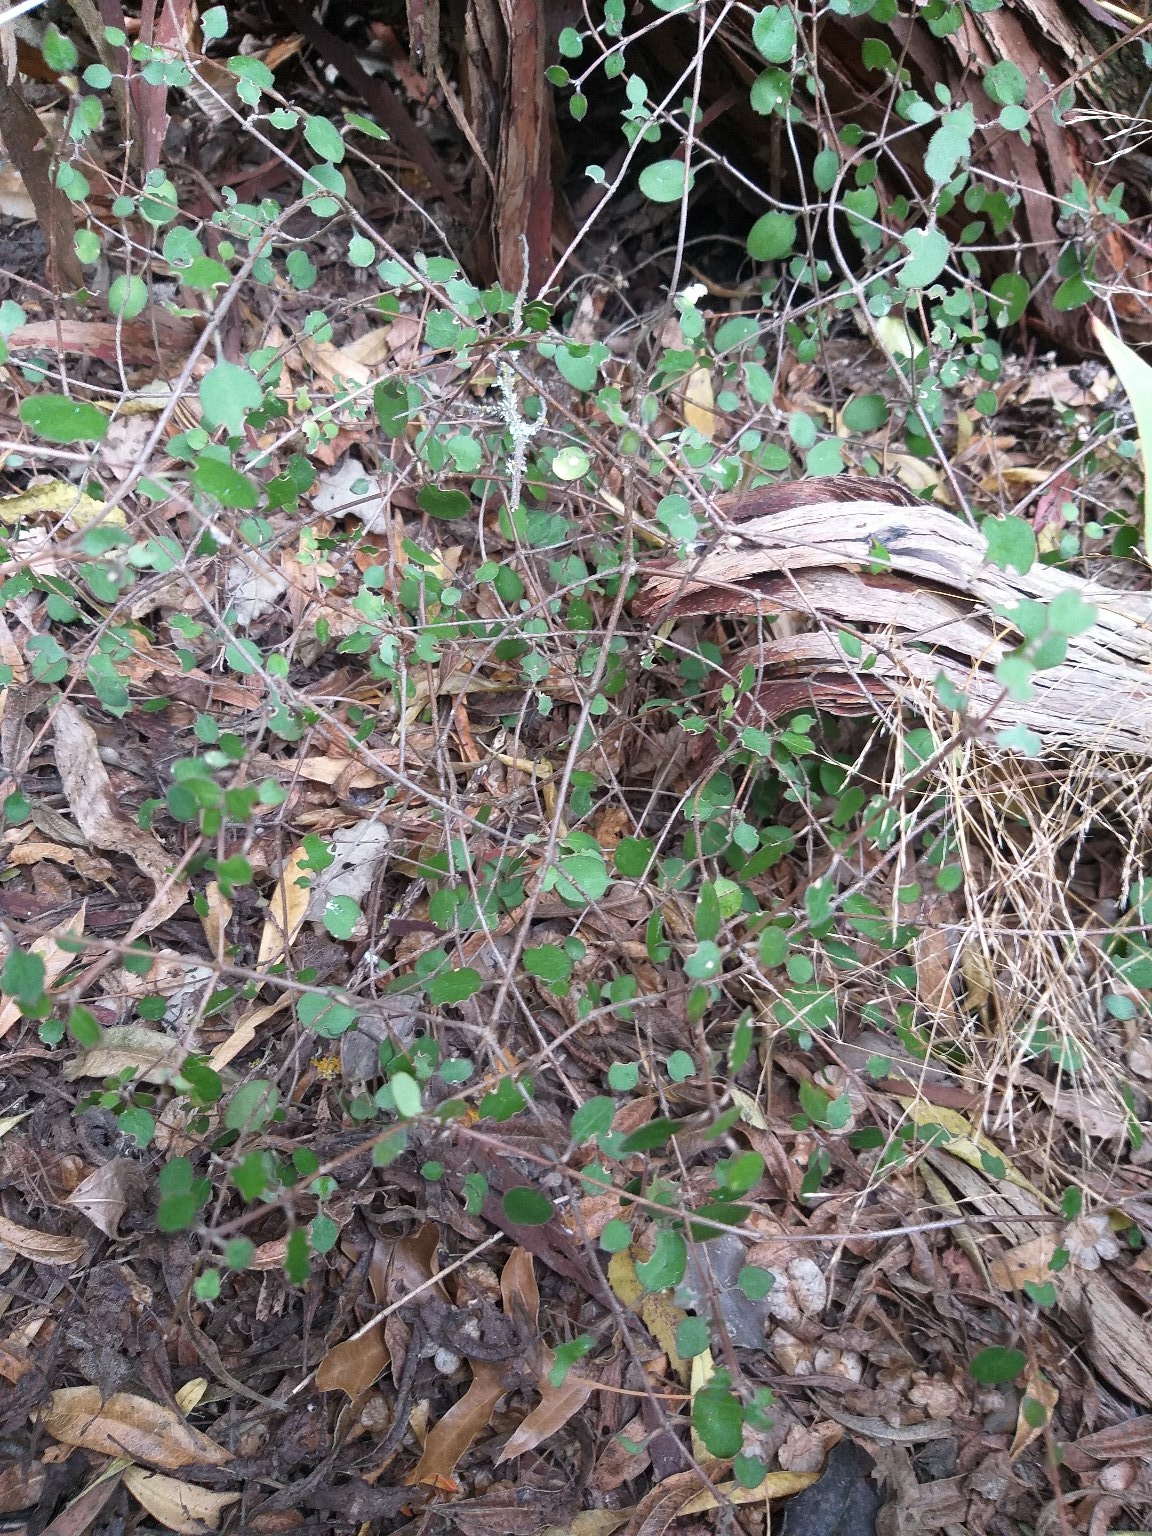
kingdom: Plantae
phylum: Tracheophyta
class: Magnoliopsida
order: Gentianales
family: Rubiaceae
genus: Coprosma
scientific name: Coprosma crassifolia
